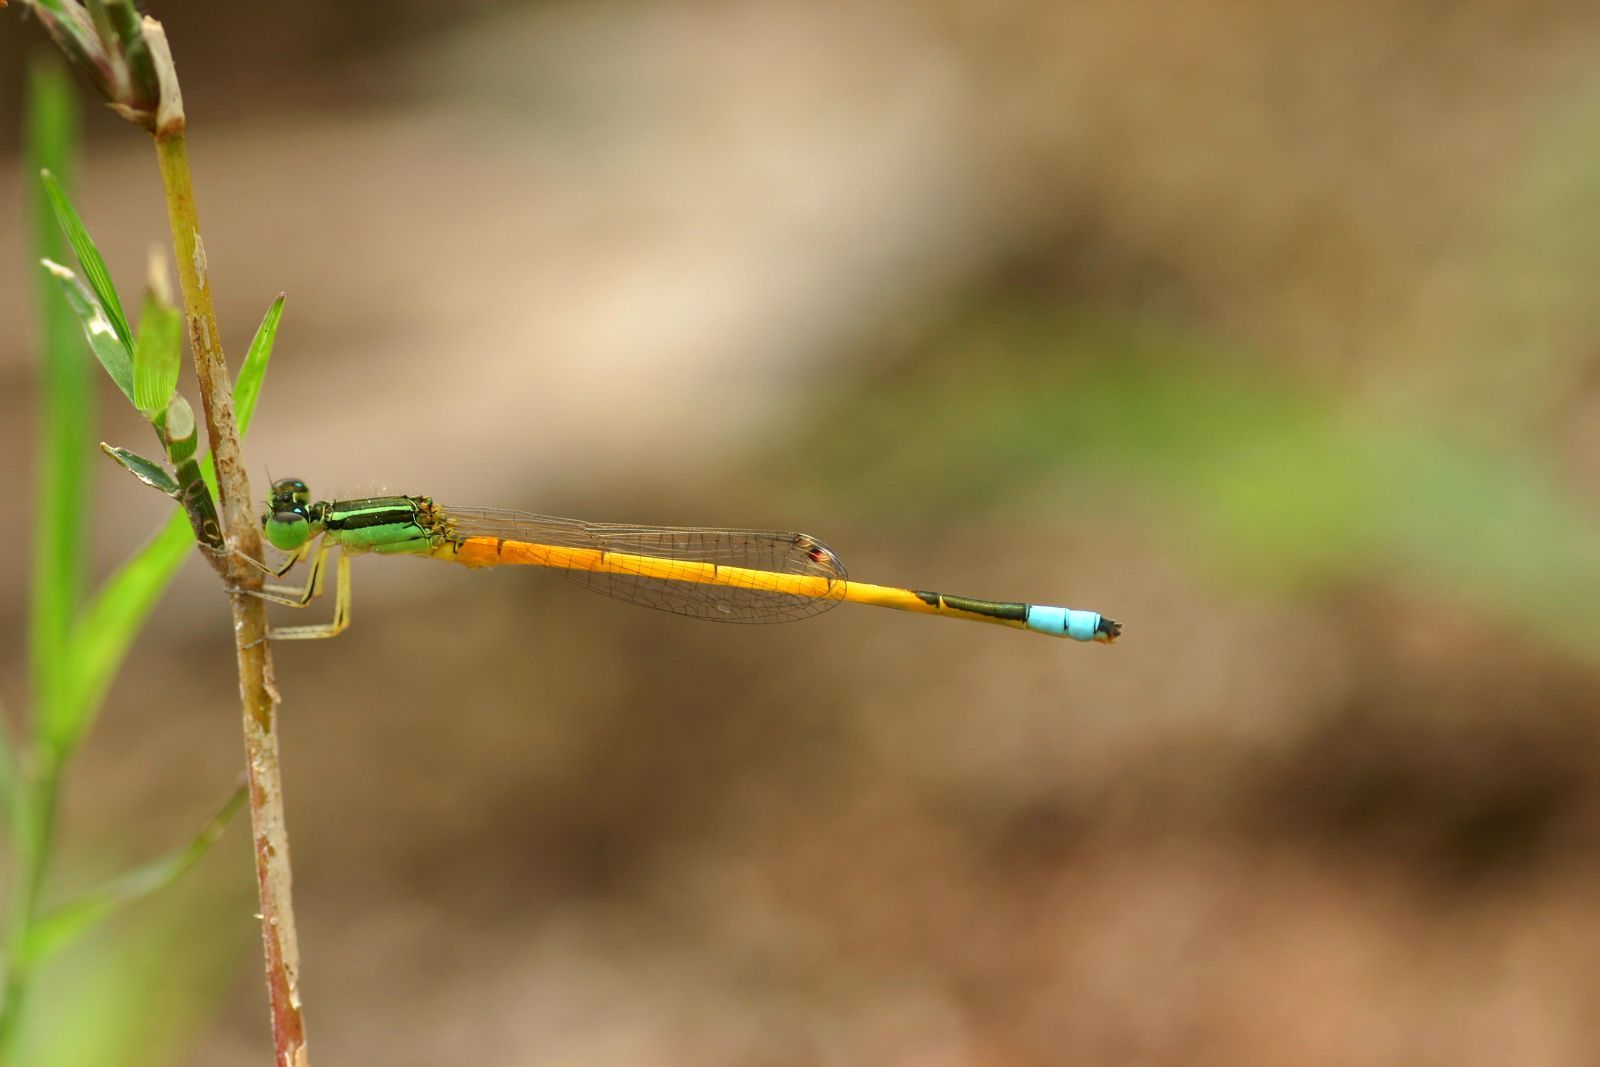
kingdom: Animalia
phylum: Arthropoda
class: Insecta
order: Odonata
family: Coenagrionidae
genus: Ischnura
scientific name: Ischnura rubilio
